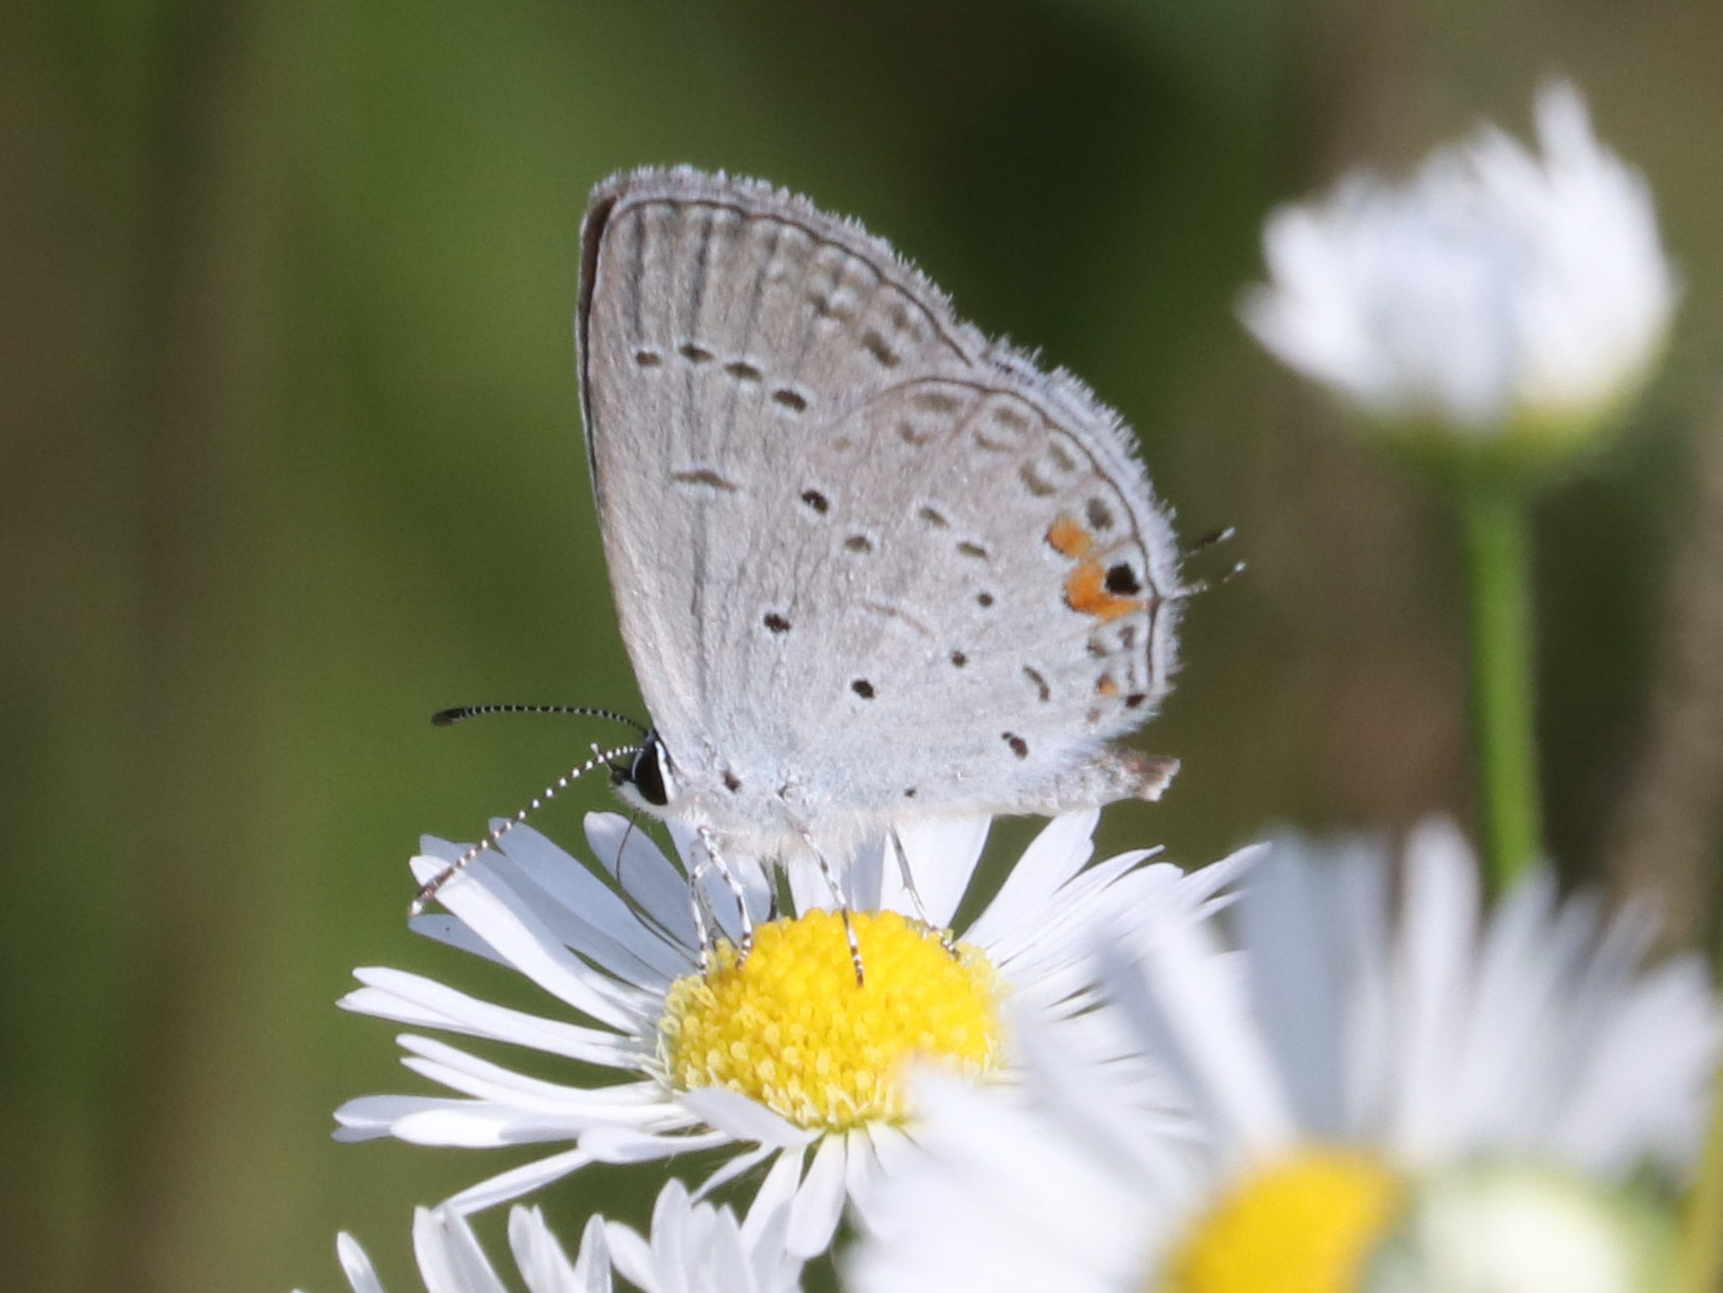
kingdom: Animalia
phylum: Arthropoda
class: Insecta
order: Lepidoptera
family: Lycaenidae
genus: Elkalyce
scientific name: Elkalyce comyntas
